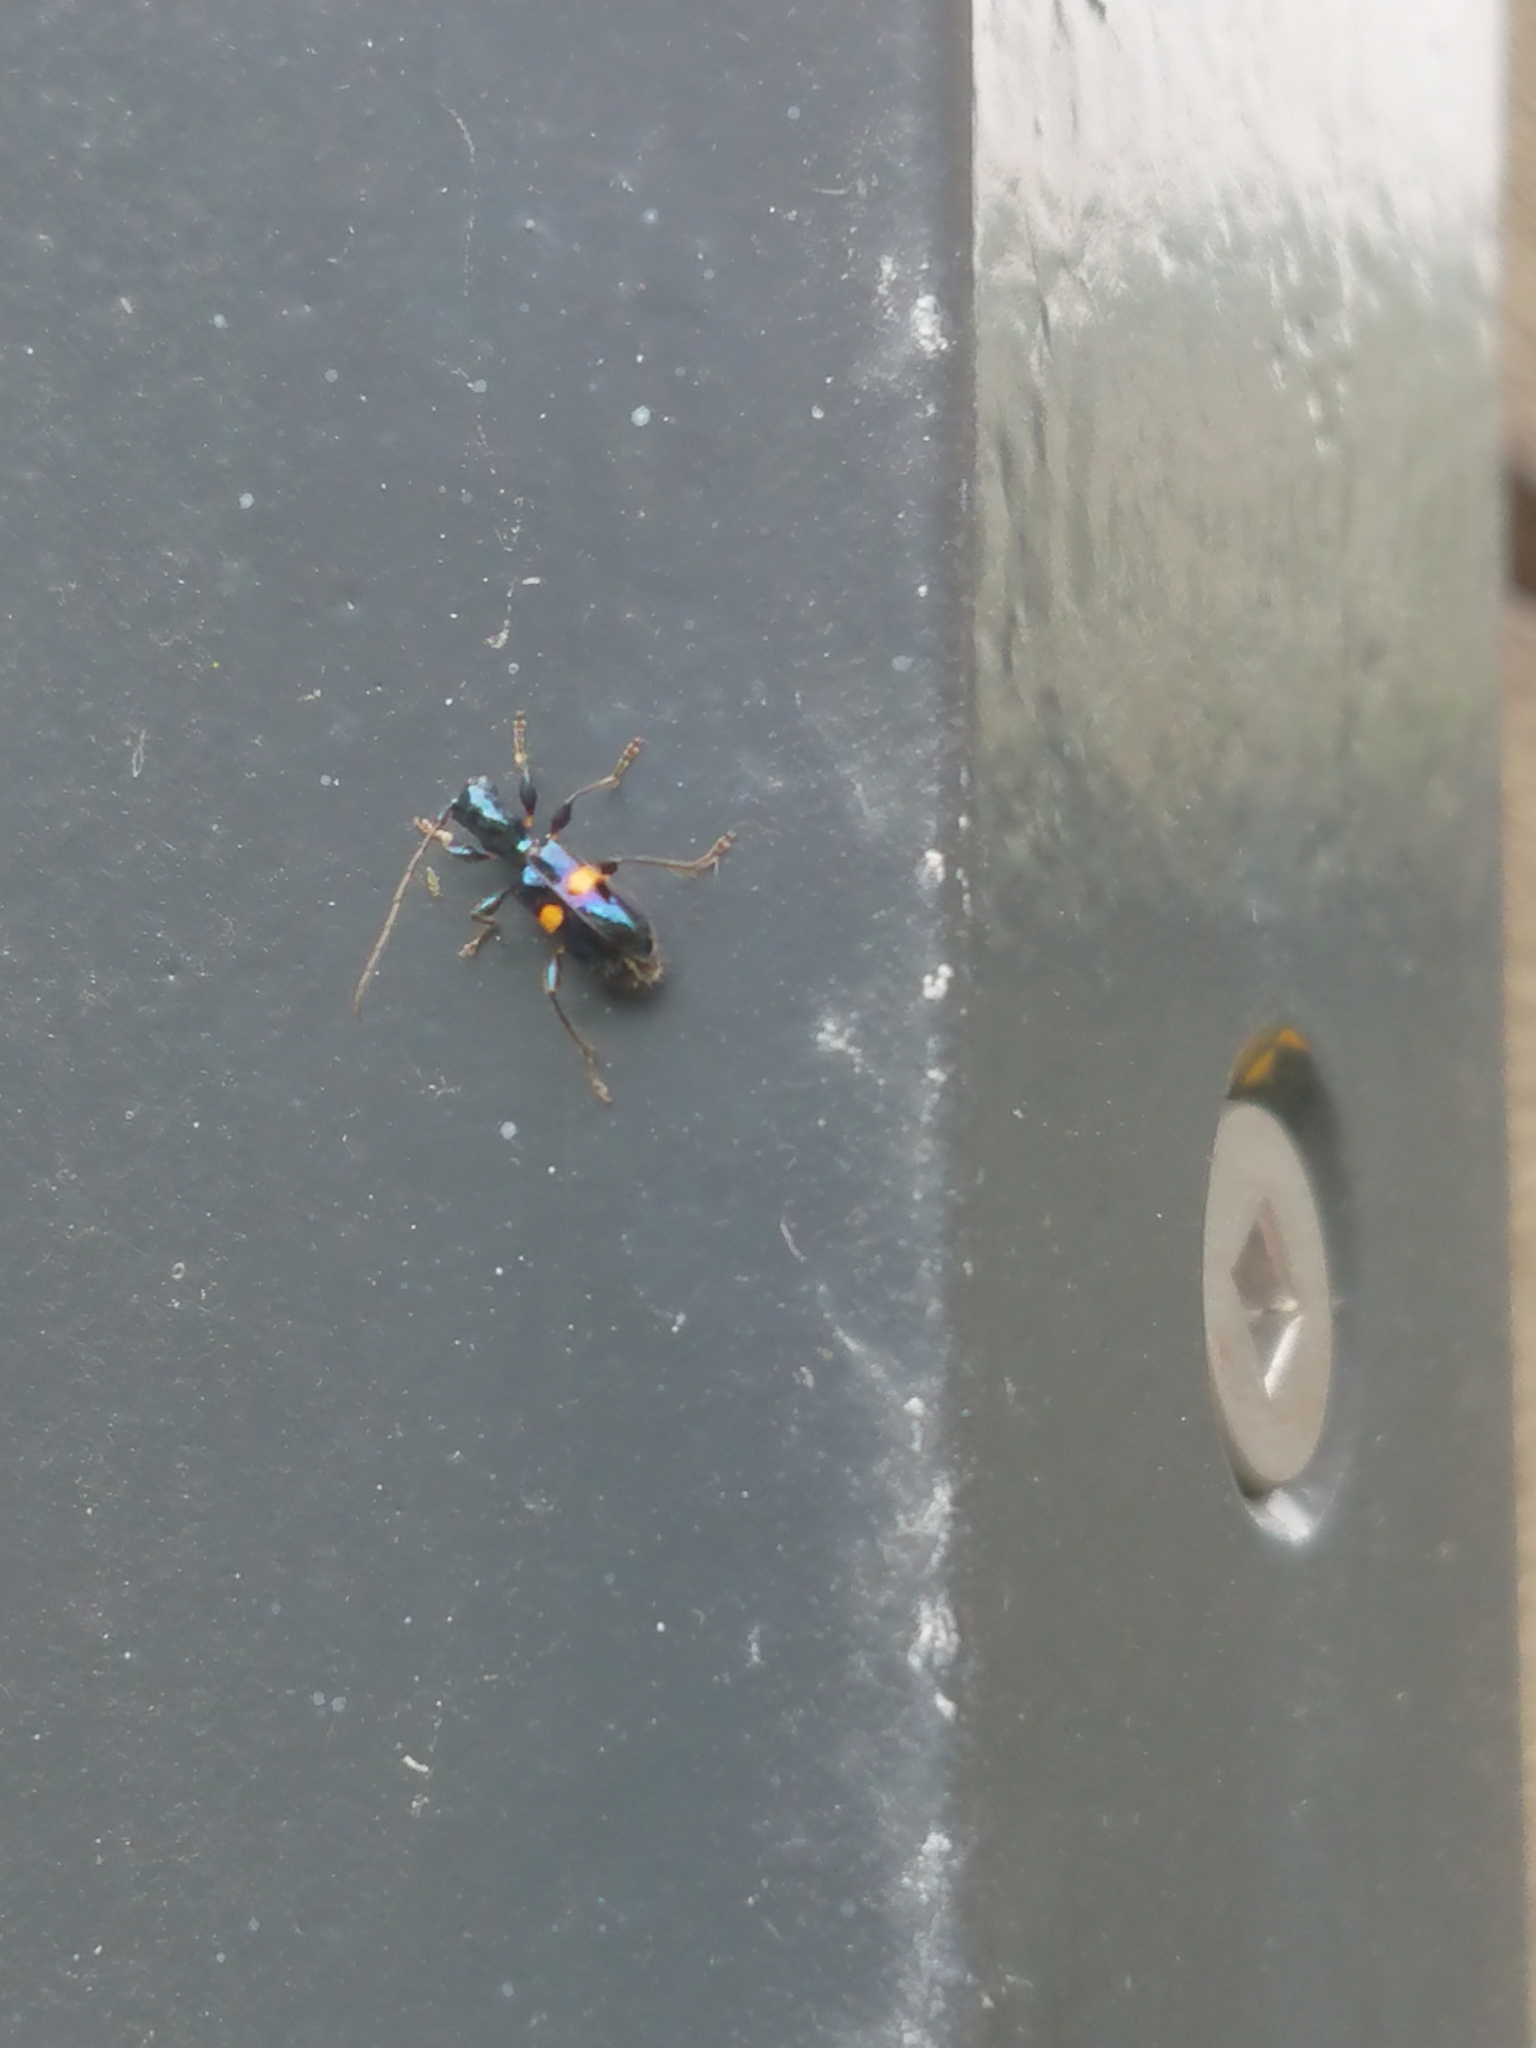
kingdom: Animalia
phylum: Arthropoda
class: Insecta
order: Coleoptera
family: Cerambycidae
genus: Zorion
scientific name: Zorion guttigerum
